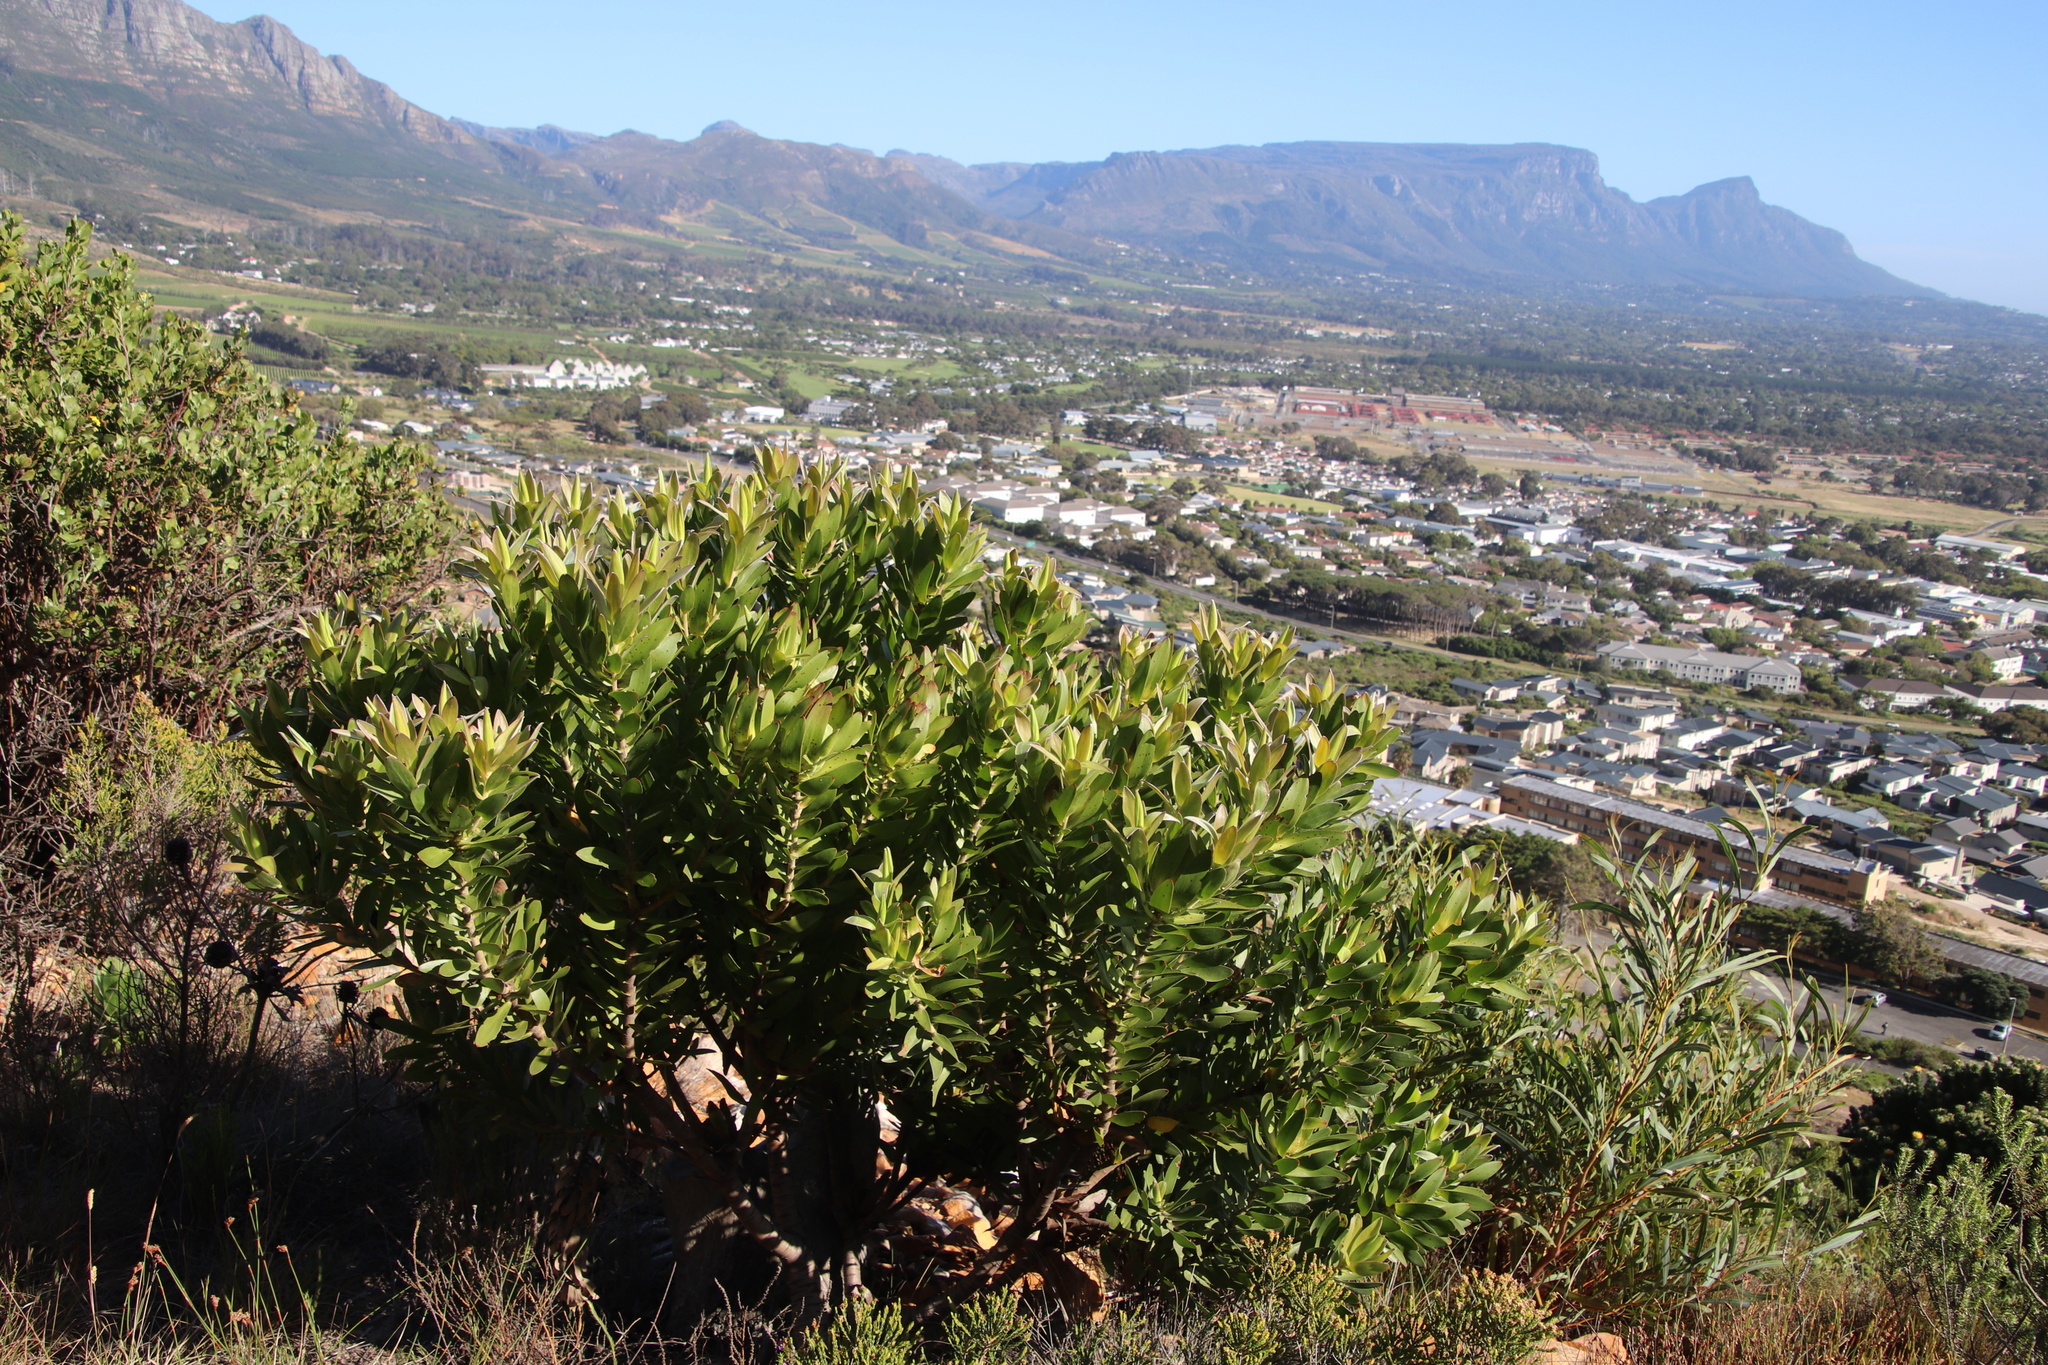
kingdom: Plantae
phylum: Tracheophyta
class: Magnoliopsida
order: Proteales
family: Proteaceae
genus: Leucadendron
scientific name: Leucadendron laureolum
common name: Golden sunshinebush
